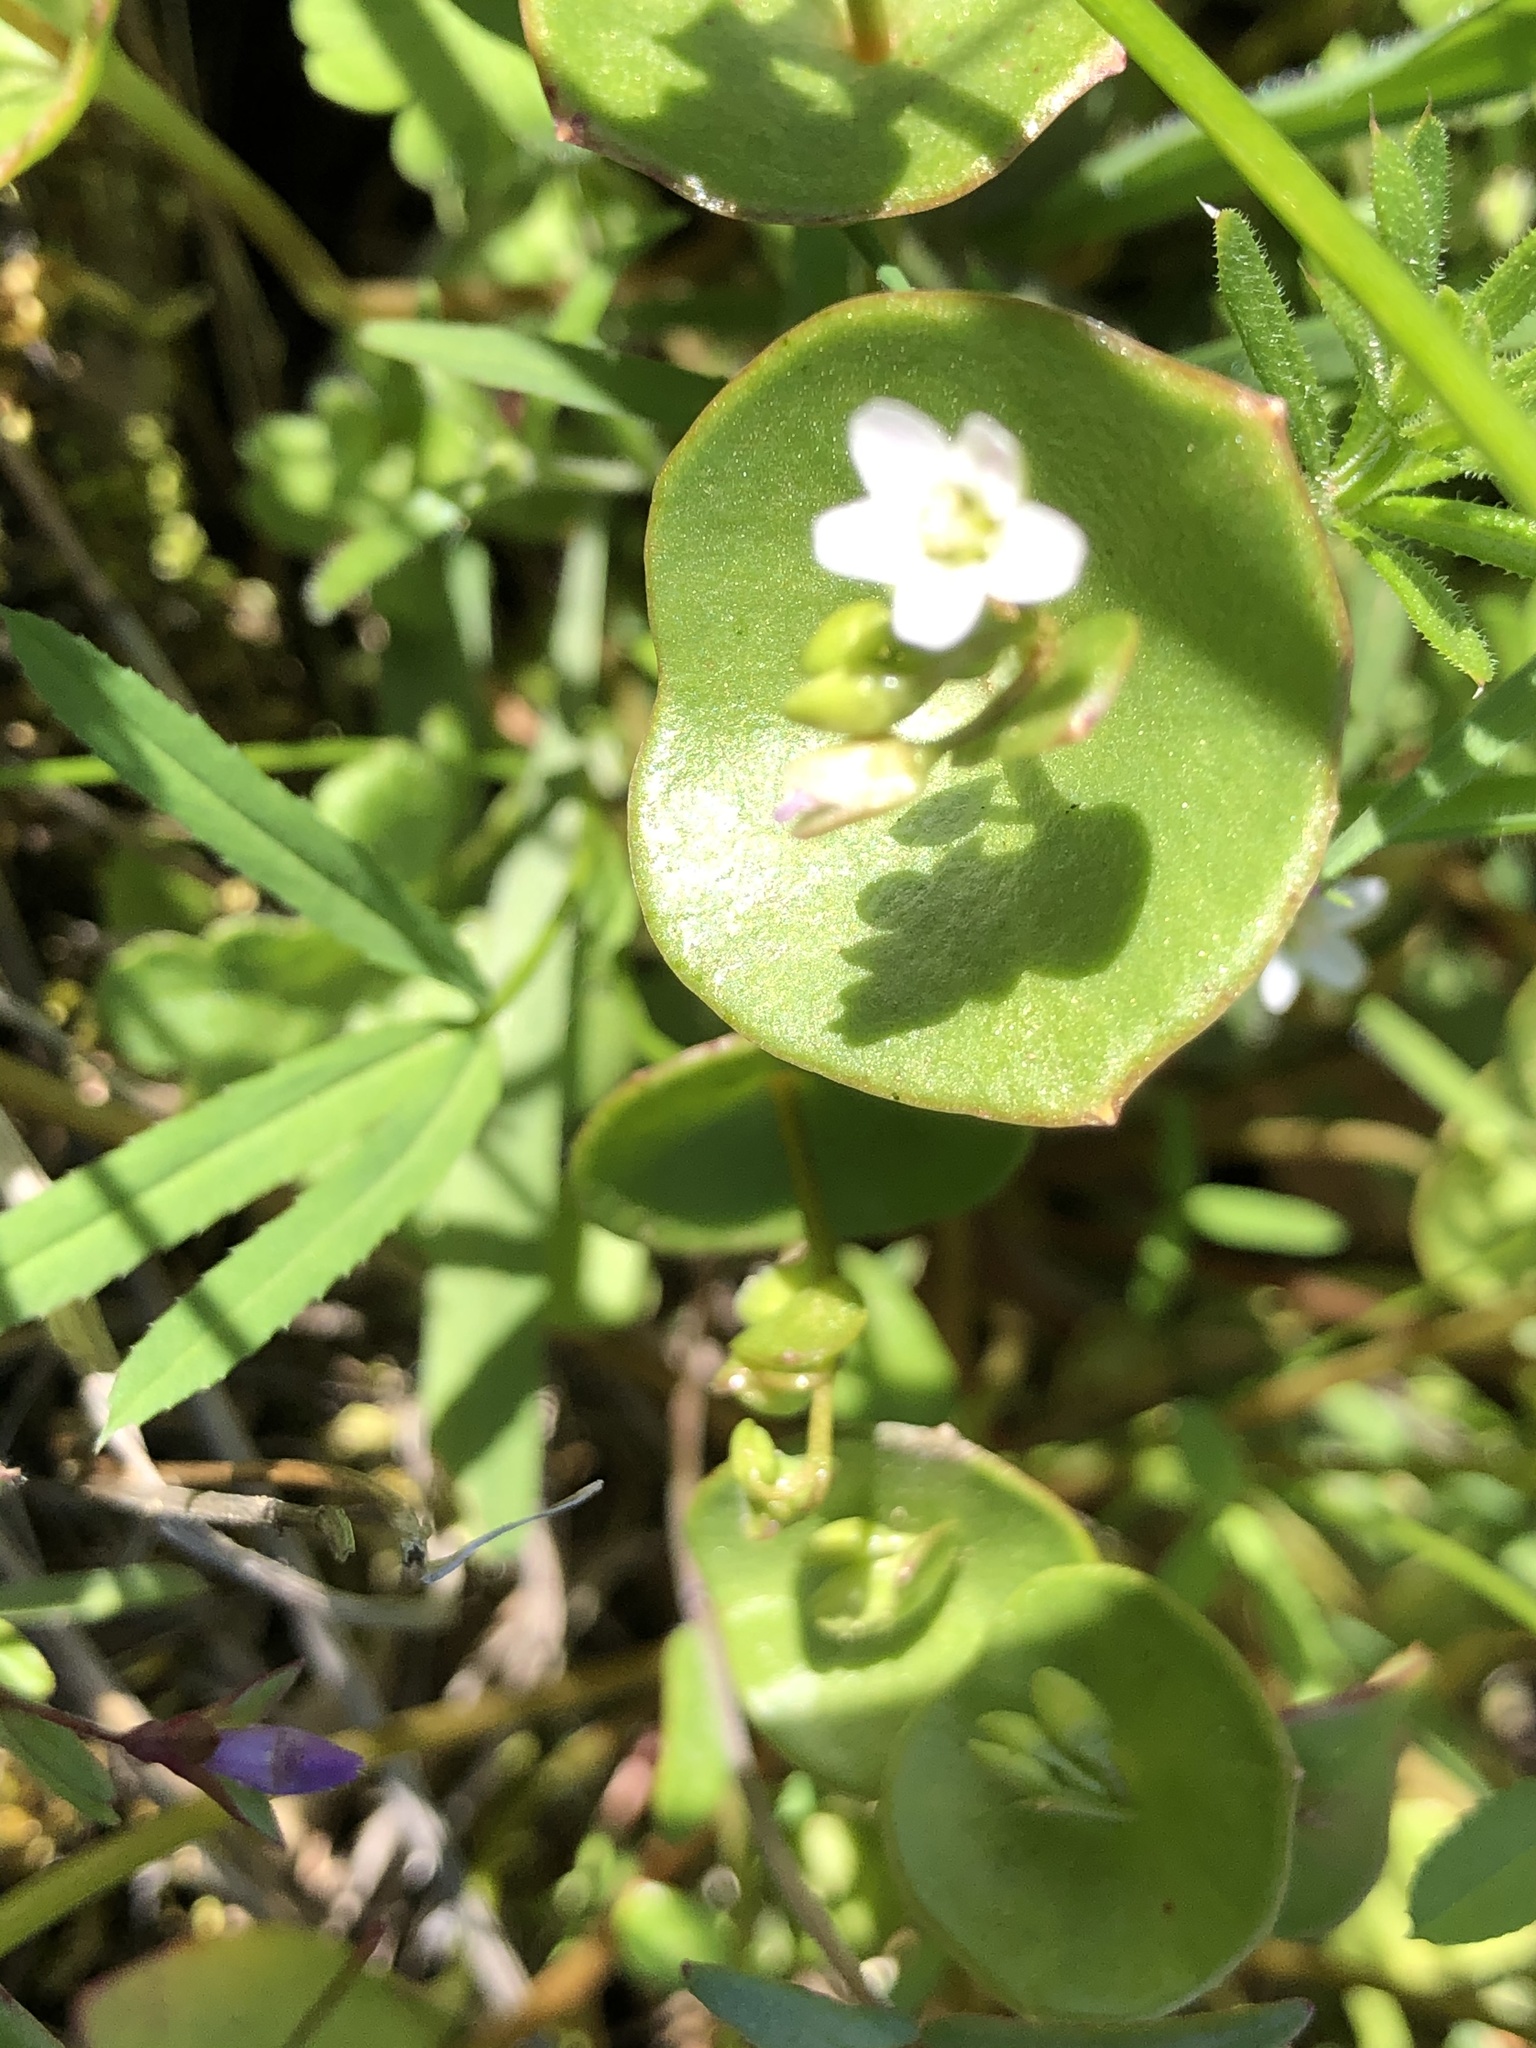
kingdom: Plantae
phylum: Tracheophyta
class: Magnoliopsida
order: Caryophyllales
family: Montiaceae
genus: Claytonia
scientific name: Claytonia perfoliata
